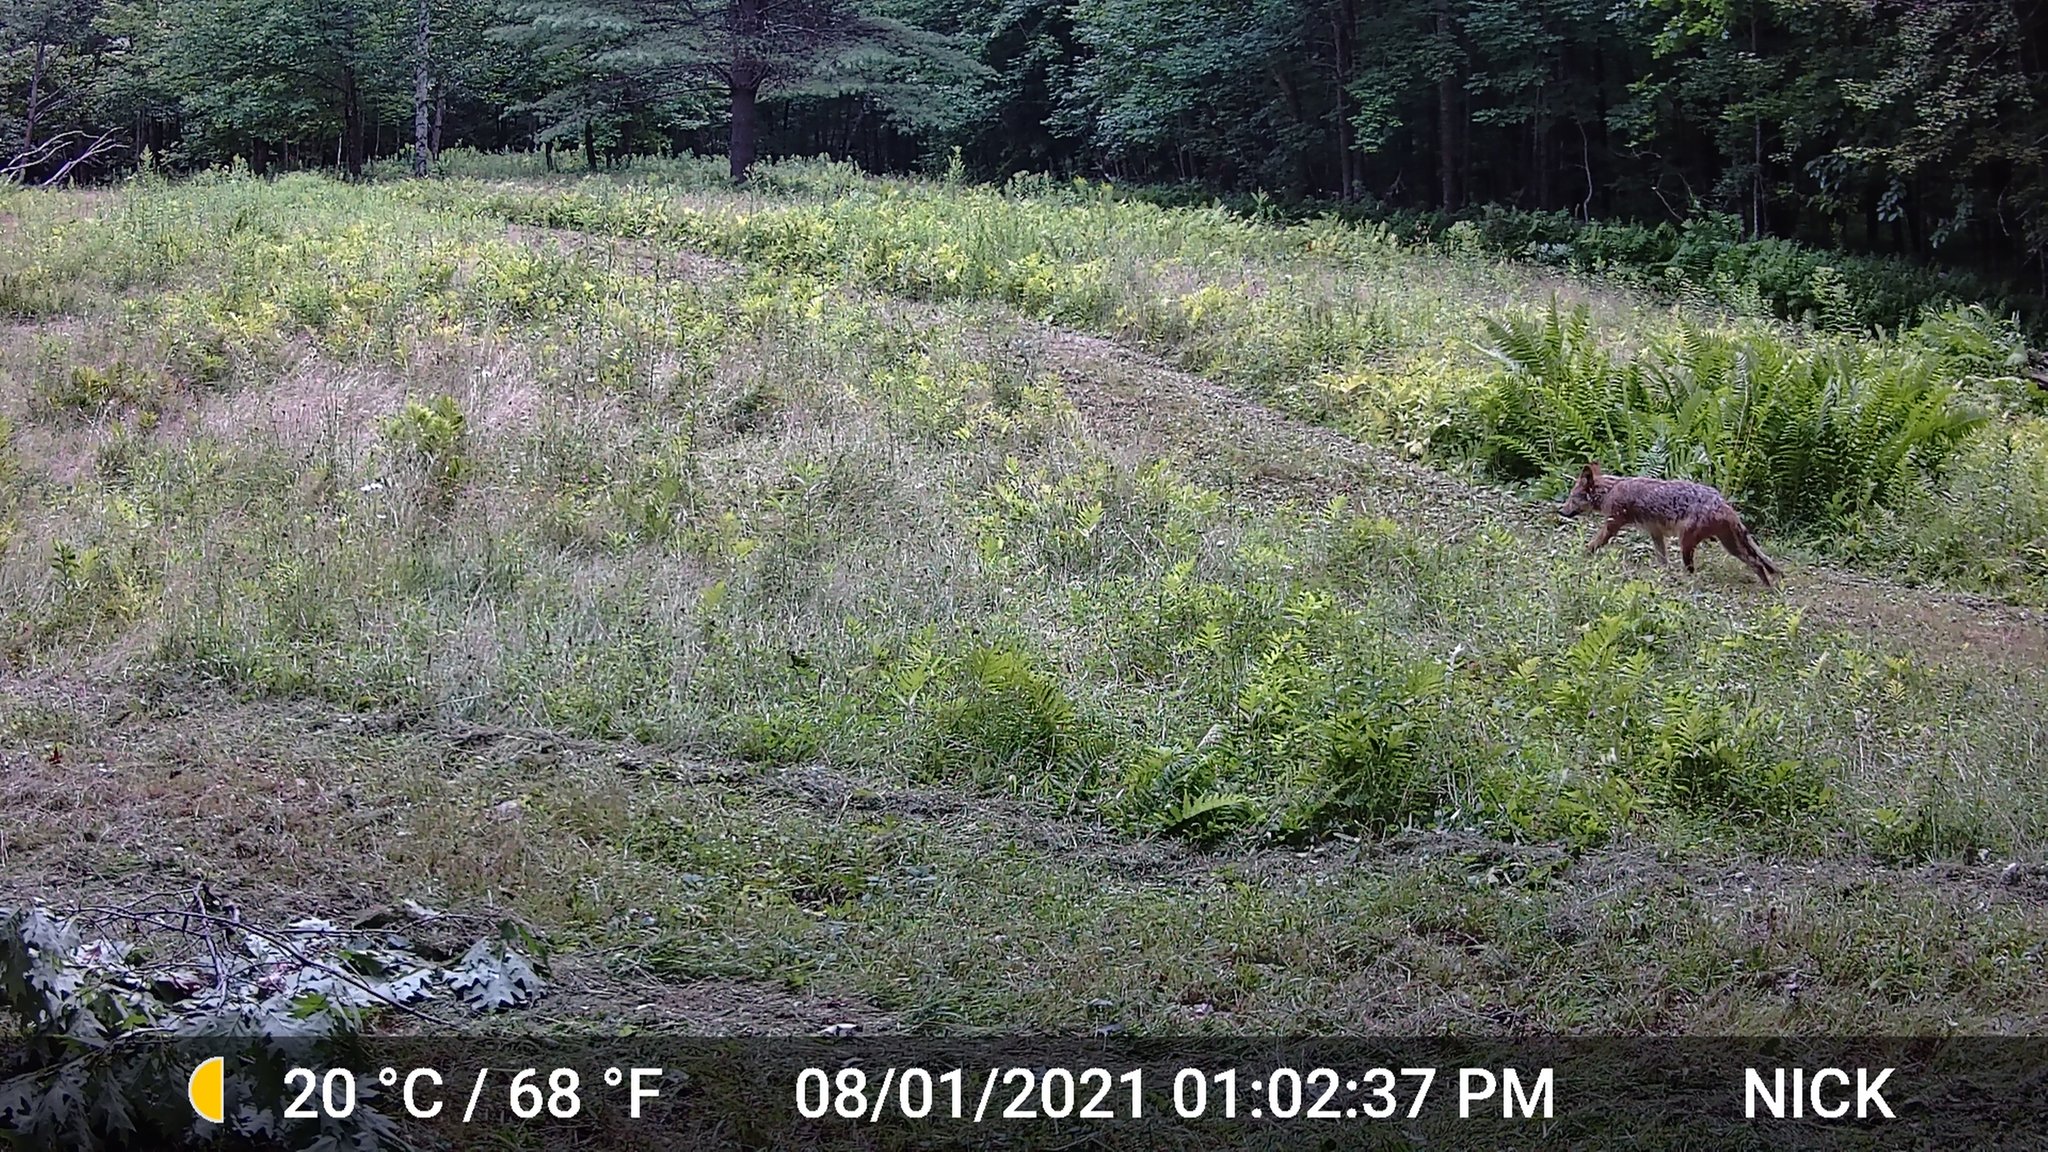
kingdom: Animalia
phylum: Chordata
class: Mammalia
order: Carnivora
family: Canidae
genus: Canis
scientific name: Canis latrans
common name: Coyote
